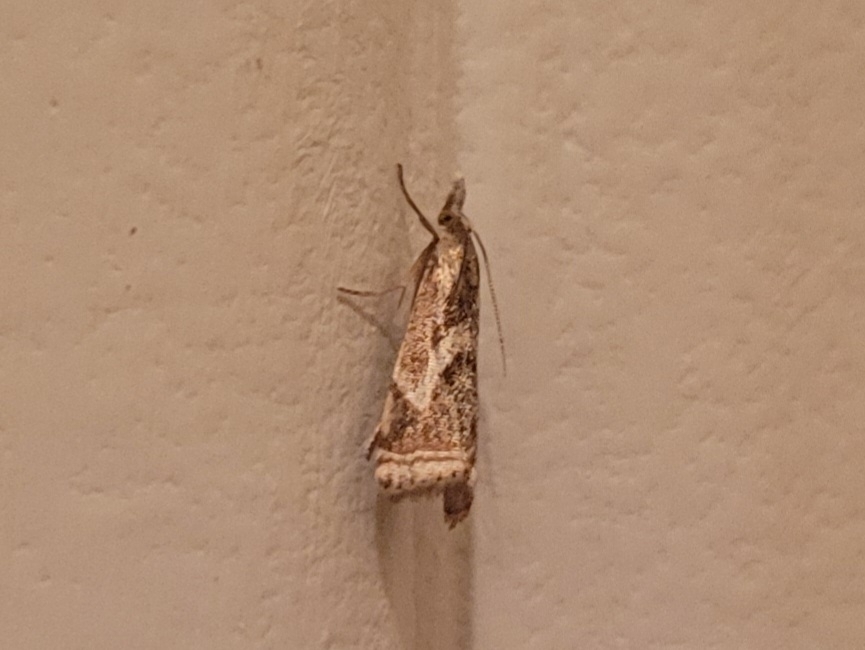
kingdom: Animalia
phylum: Arthropoda
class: Insecta
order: Lepidoptera
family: Crambidae
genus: Microcrambus
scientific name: Microcrambus elegans
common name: Elegant grass-veneer
